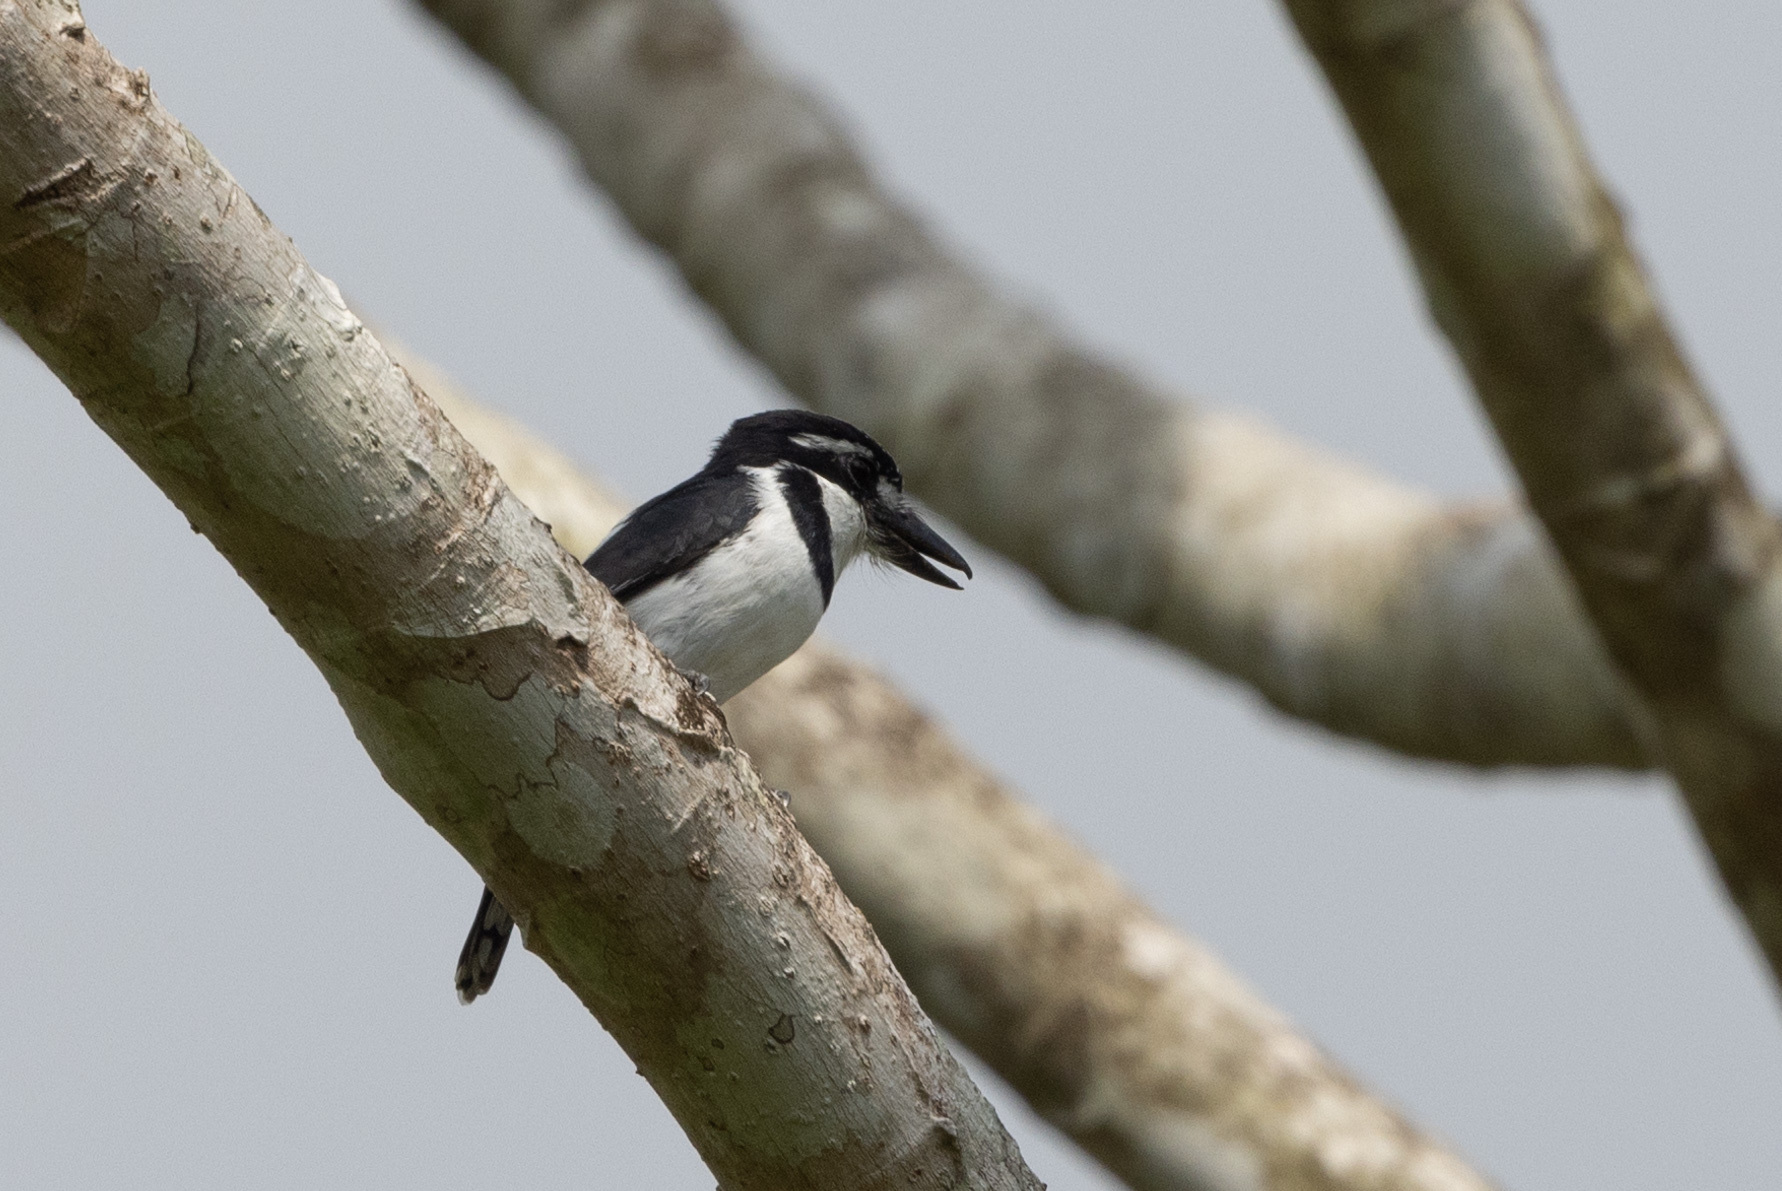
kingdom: Animalia
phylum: Chordata
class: Aves
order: Piciformes
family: Bucconidae
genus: Notharchus
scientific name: Notharchus tectus
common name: Pied puffbird
